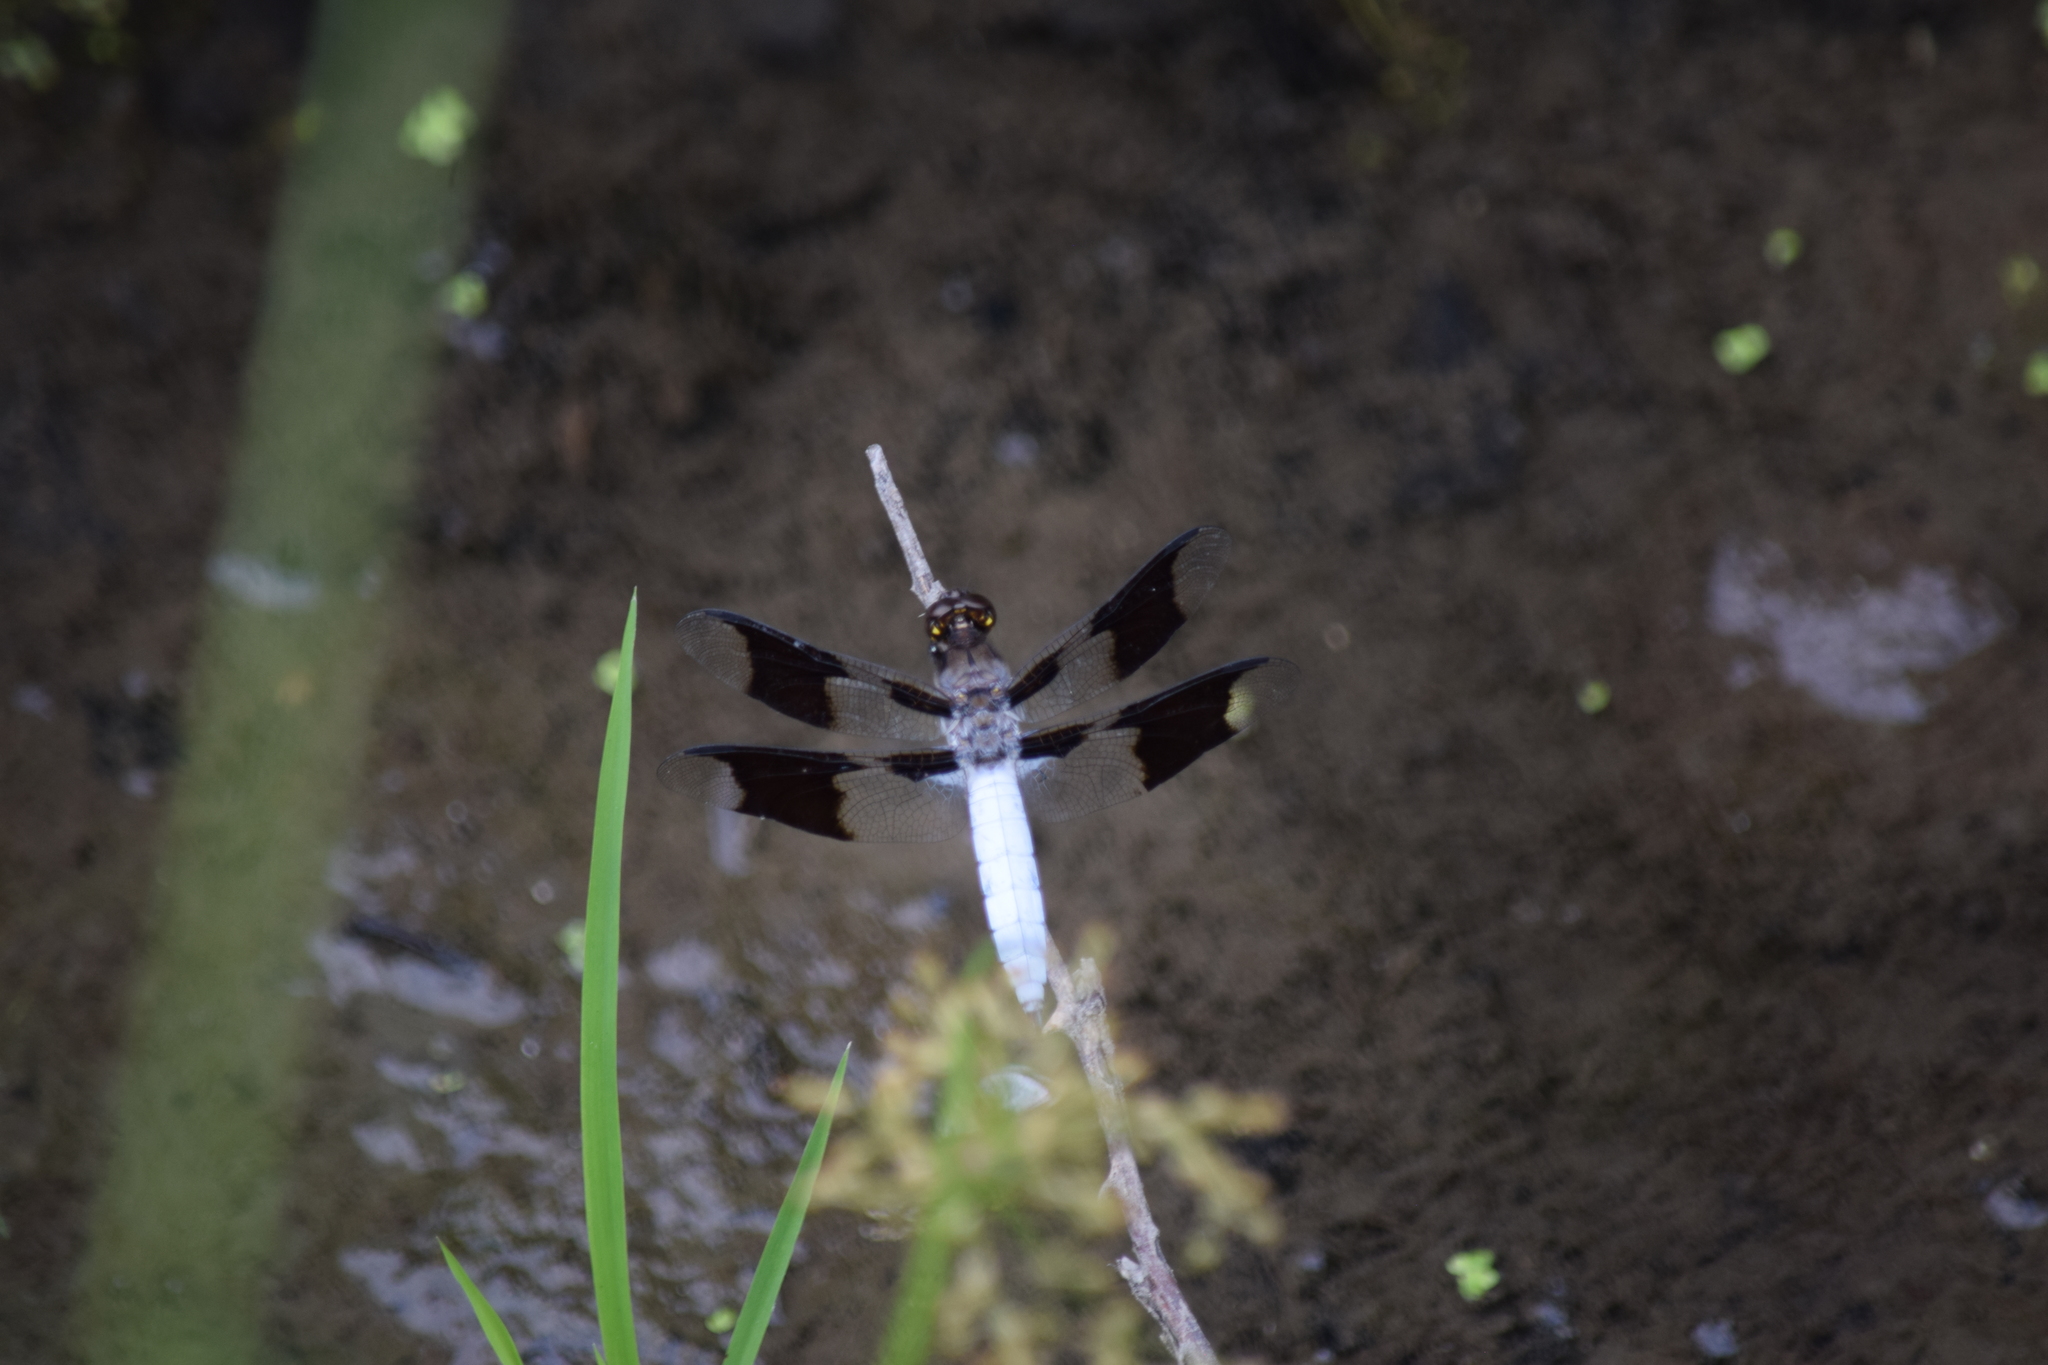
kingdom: Animalia
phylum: Arthropoda
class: Insecta
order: Odonata
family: Libellulidae
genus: Plathemis
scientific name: Plathemis lydia
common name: Common whitetail
